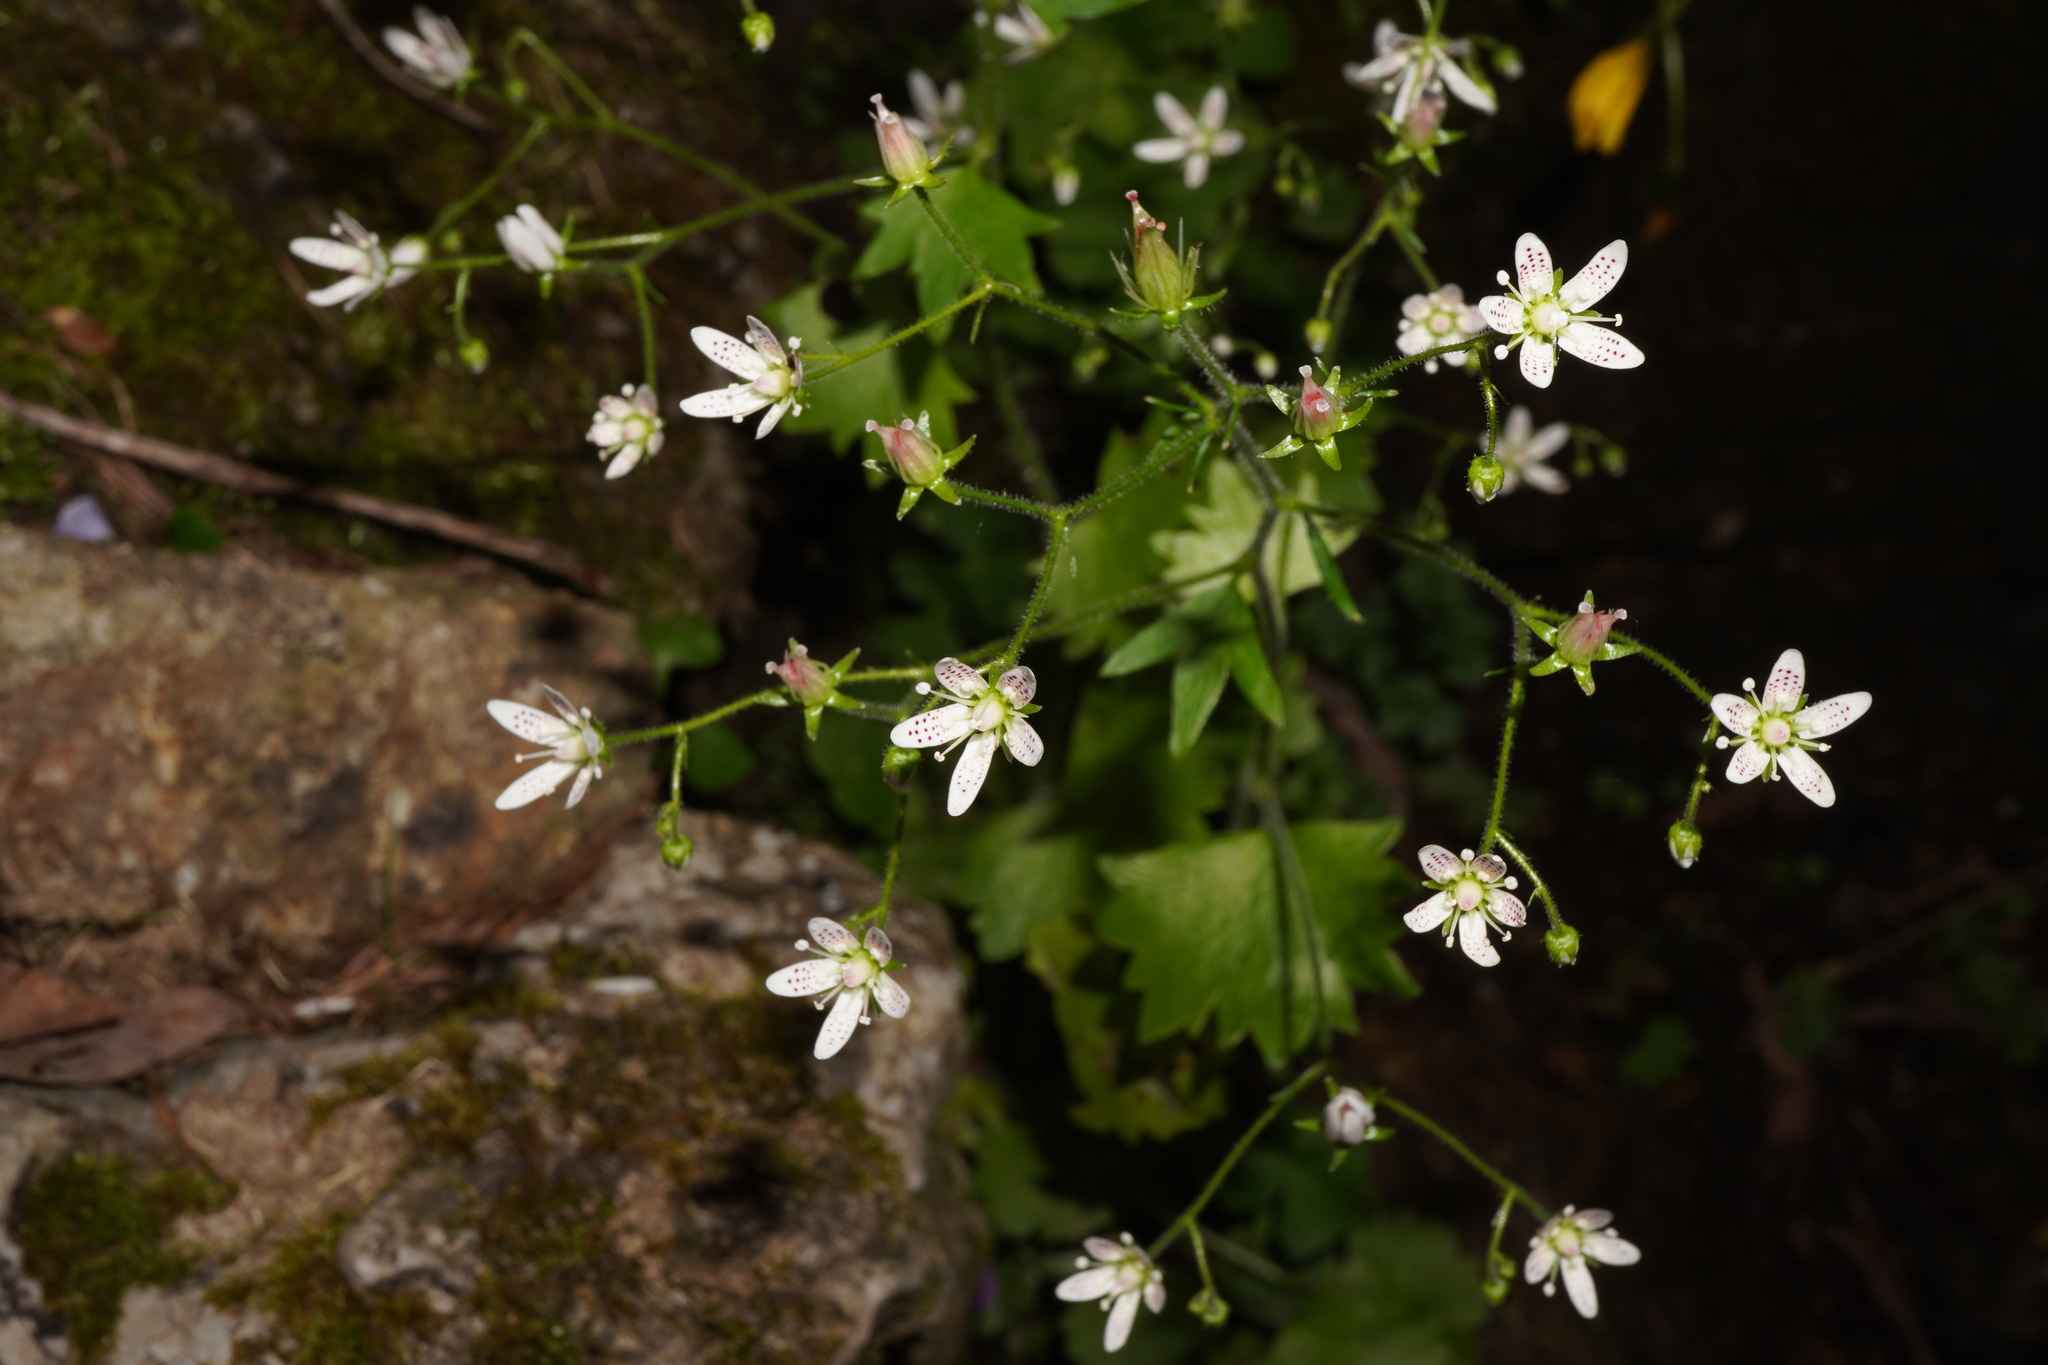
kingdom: Plantae
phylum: Tracheophyta
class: Magnoliopsida
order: Saxifragales
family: Saxifragaceae
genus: Saxifraga
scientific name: Saxifraga rotundifolia
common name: Round-leaved saxifrage
